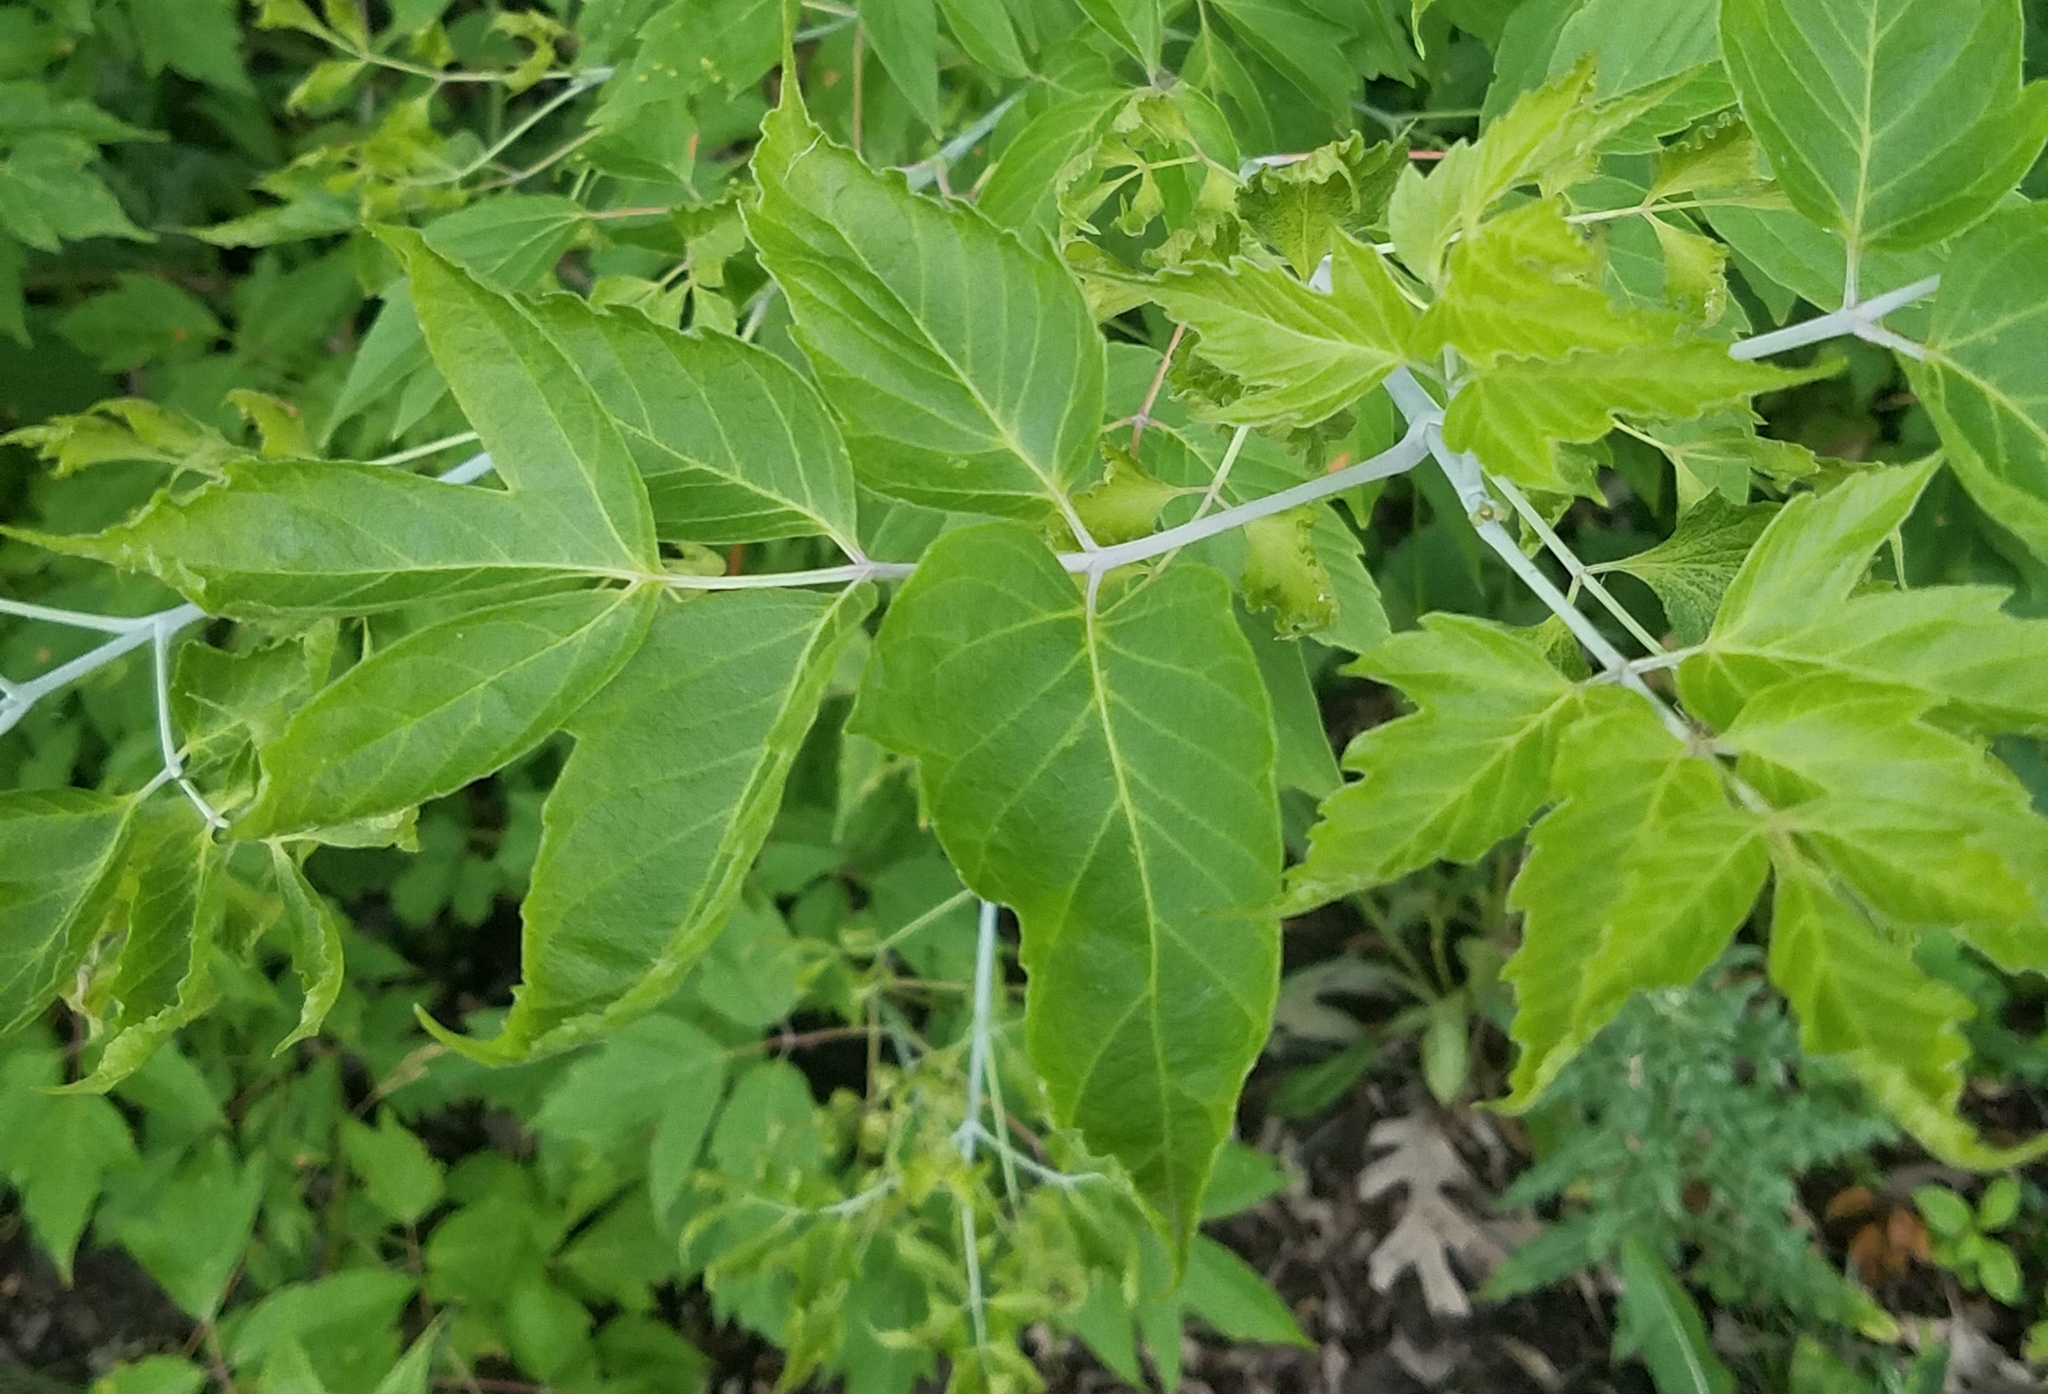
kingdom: Plantae
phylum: Tracheophyta
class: Magnoliopsida
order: Sapindales
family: Sapindaceae
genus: Acer
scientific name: Acer negundo
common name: Ashleaf maple
